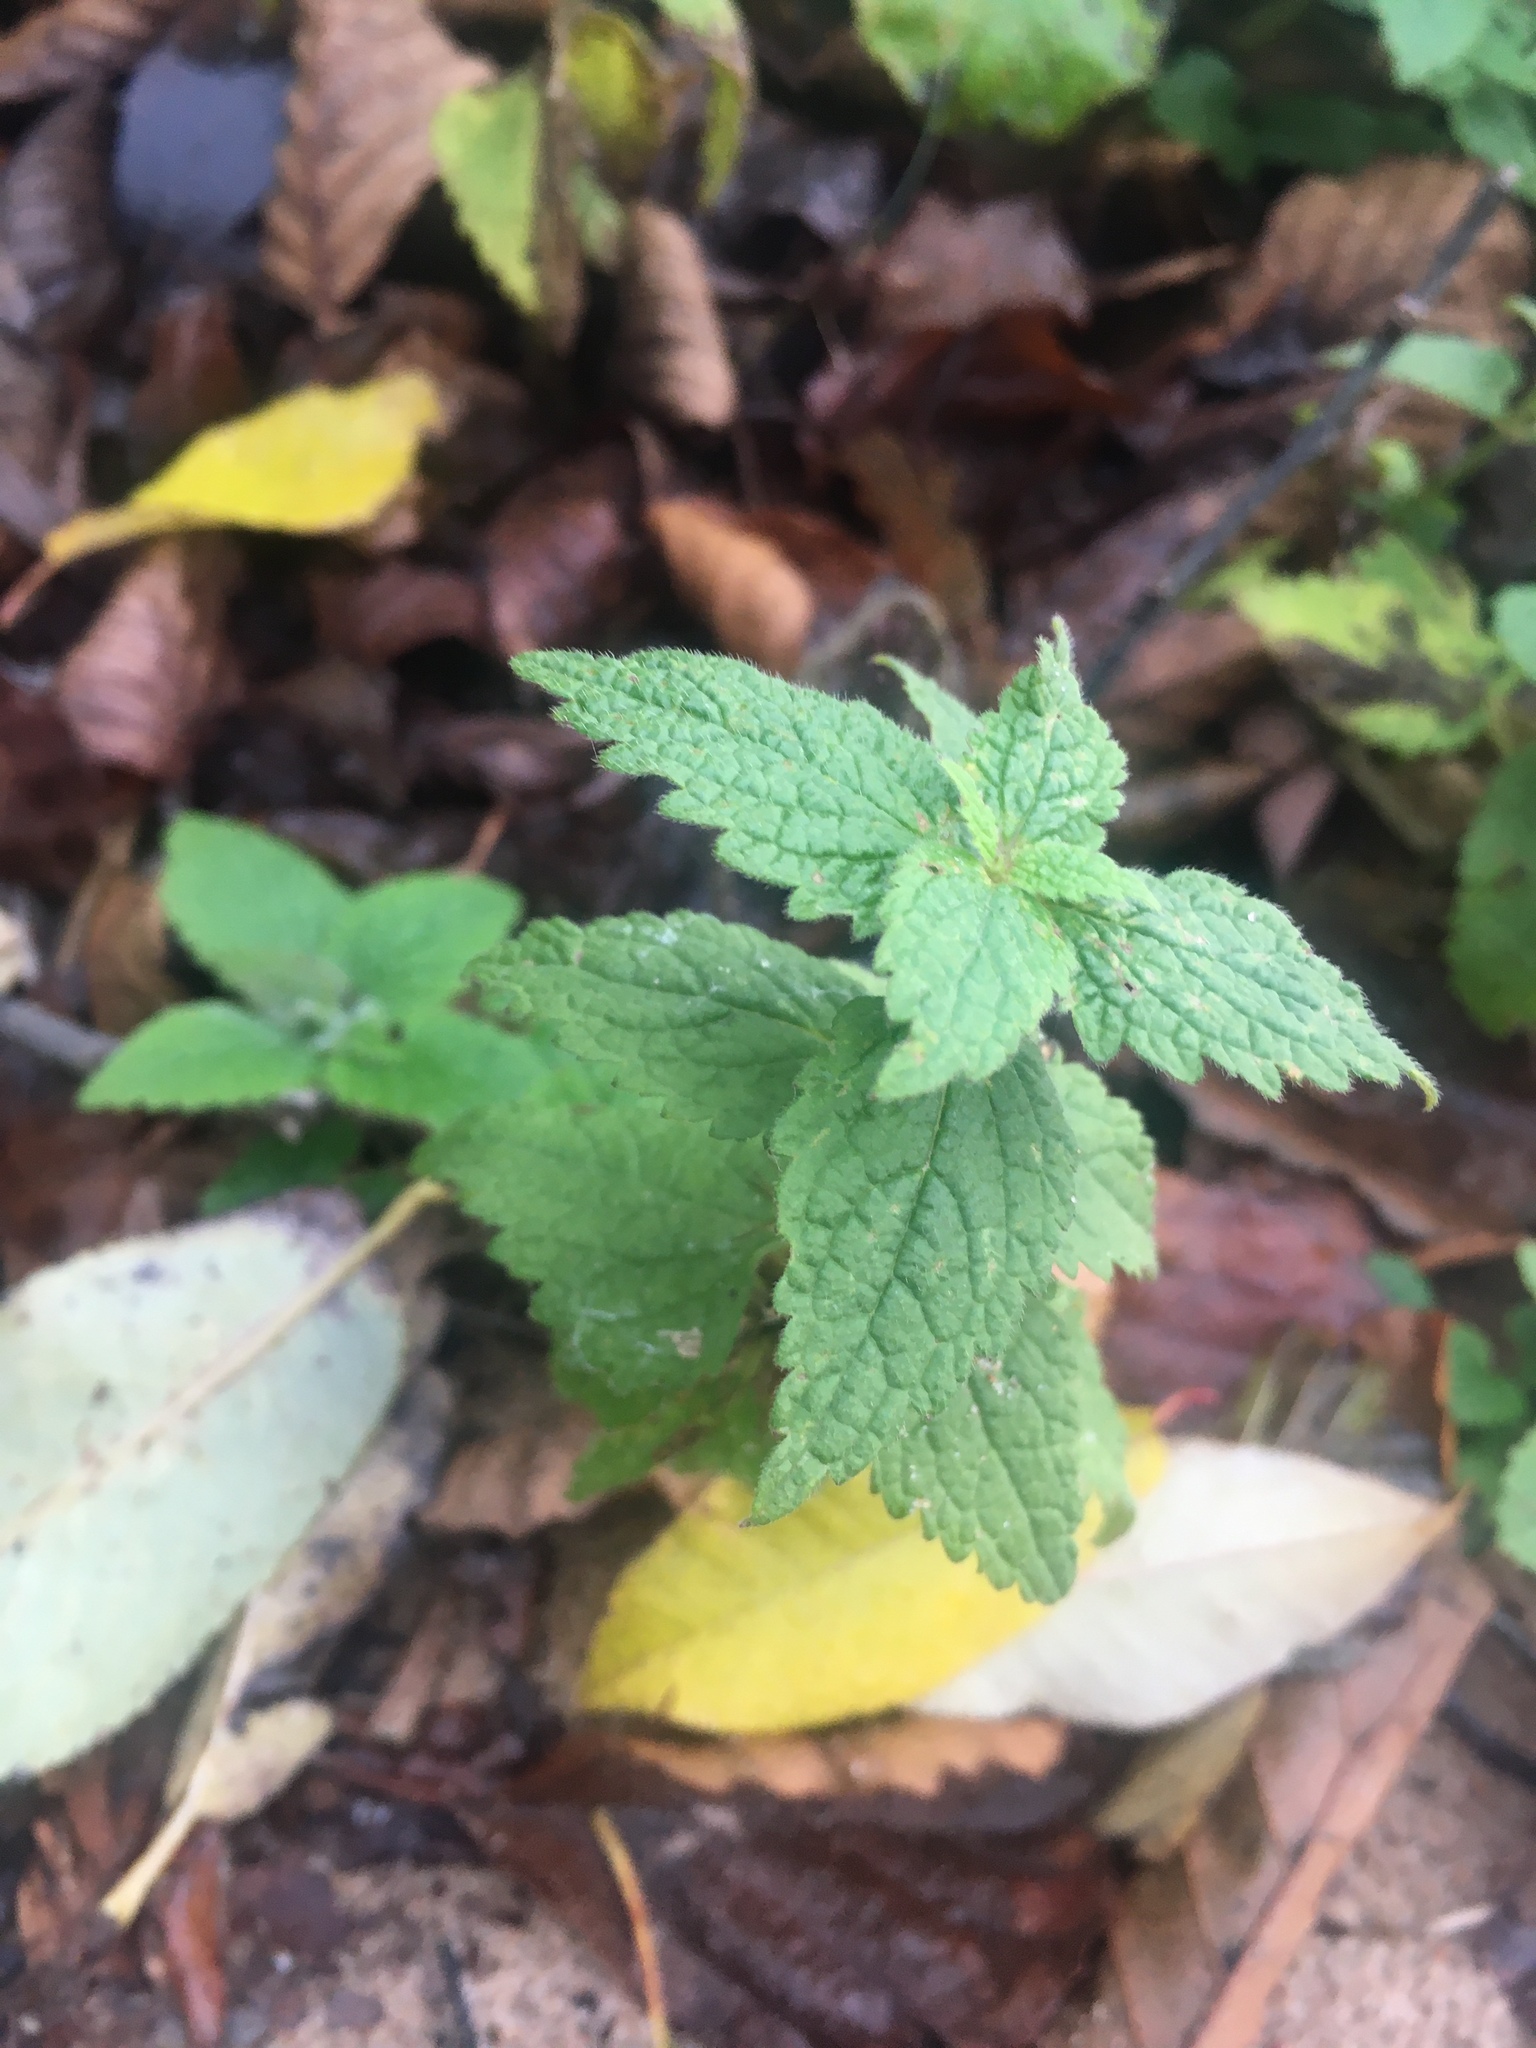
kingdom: Plantae
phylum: Tracheophyta
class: Magnoliopsida
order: Lamiales
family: Lamiaceae
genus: Lamium
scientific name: Lamium album
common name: White dead-nettle
